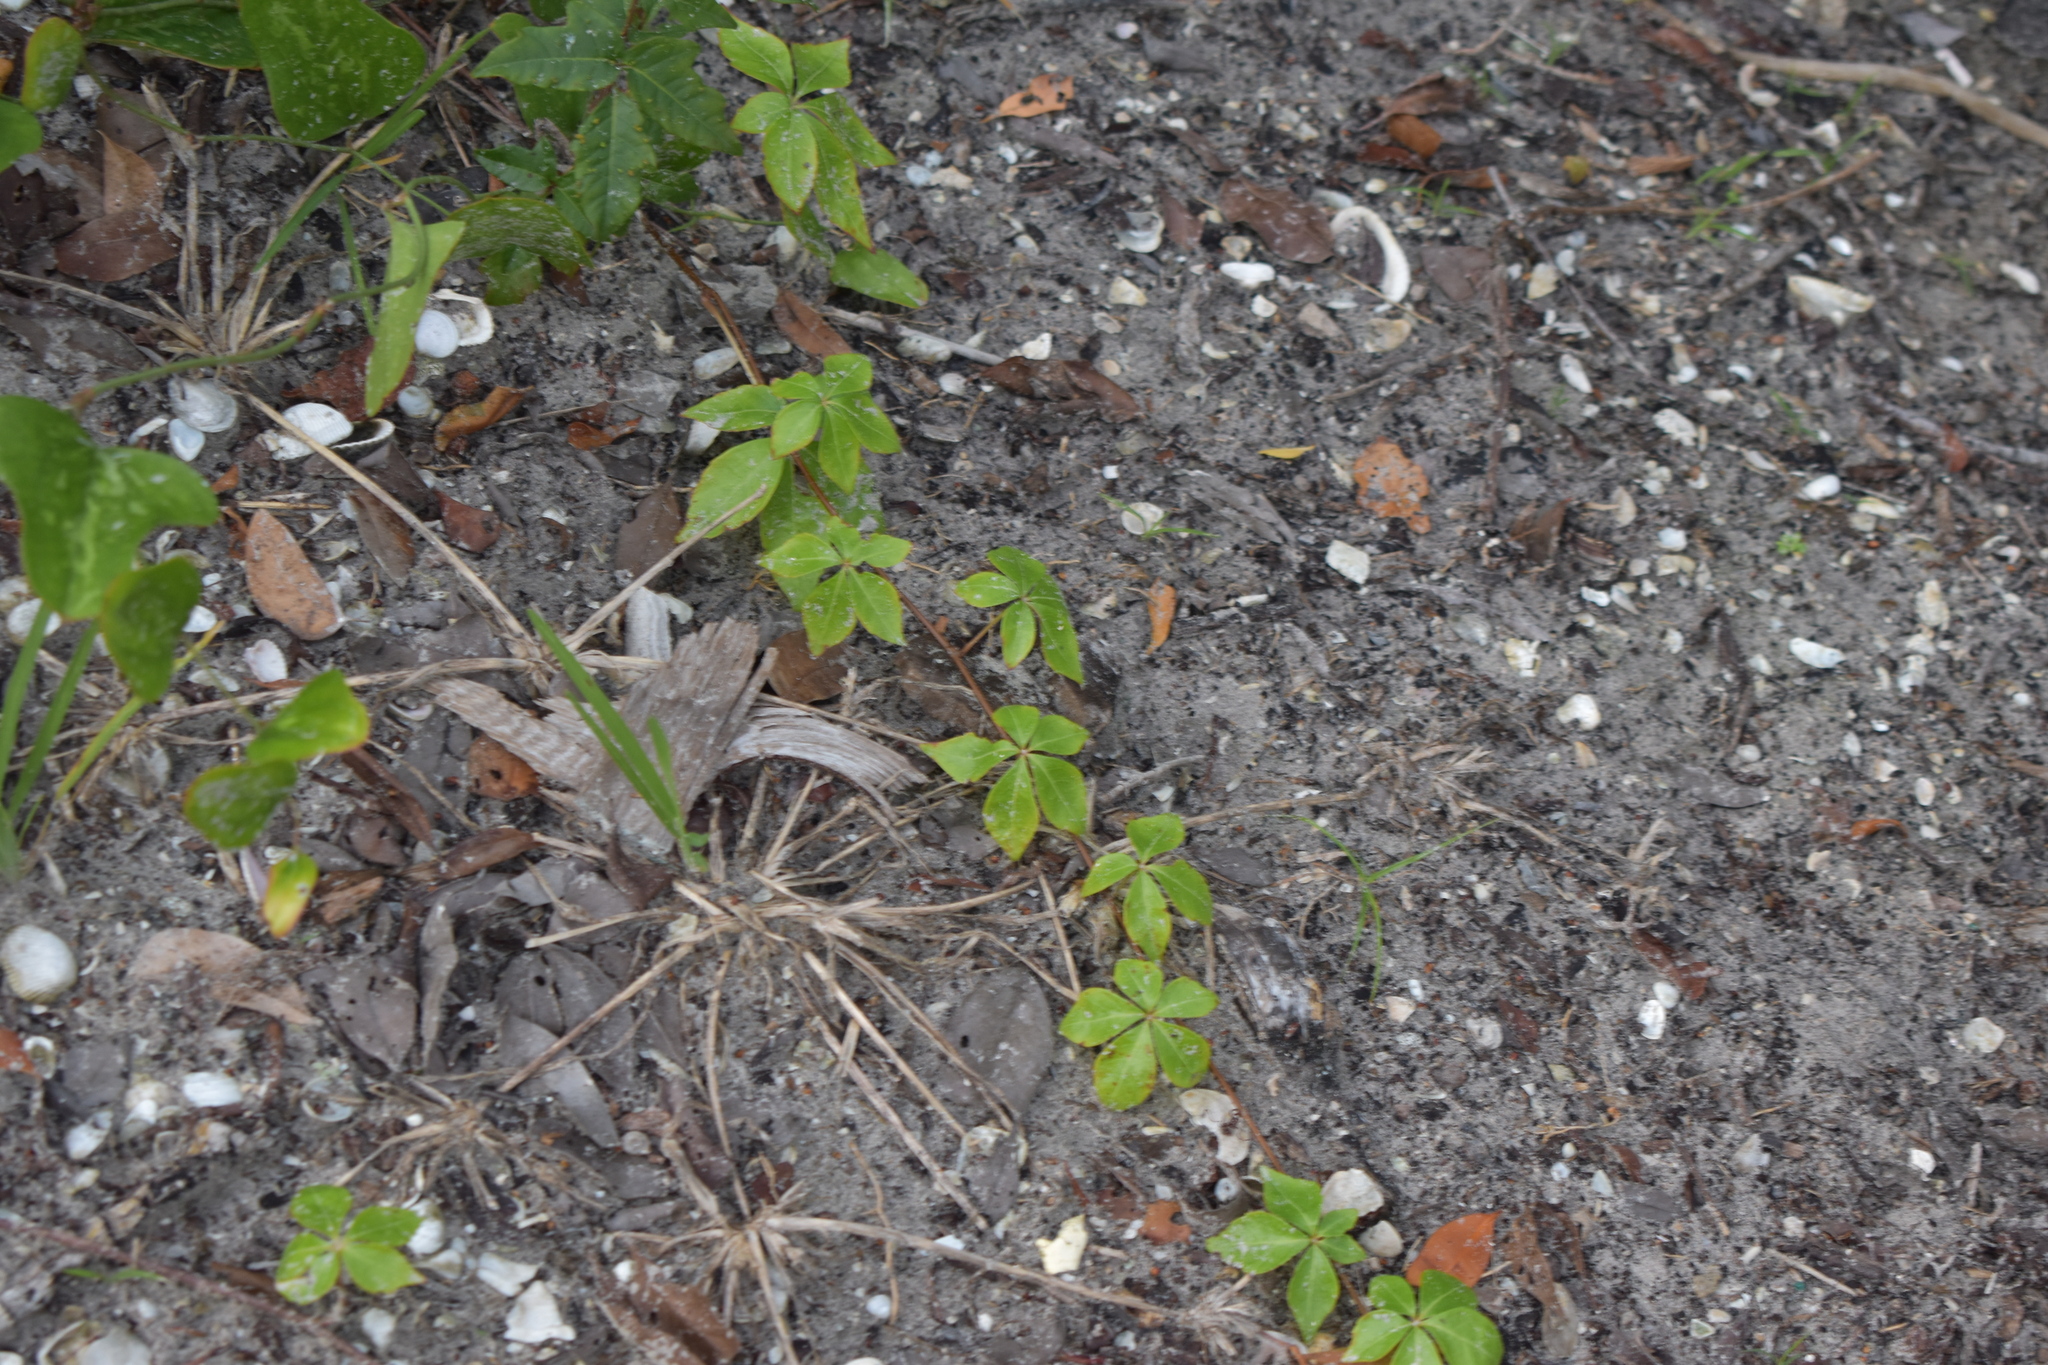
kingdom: Plantae
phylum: Tracheophyta
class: Magnoliopsida
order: Vitales
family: Vitaceae
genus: Parthenocissus
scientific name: Parthenocissus quinquefolia
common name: Virginia-creeper
